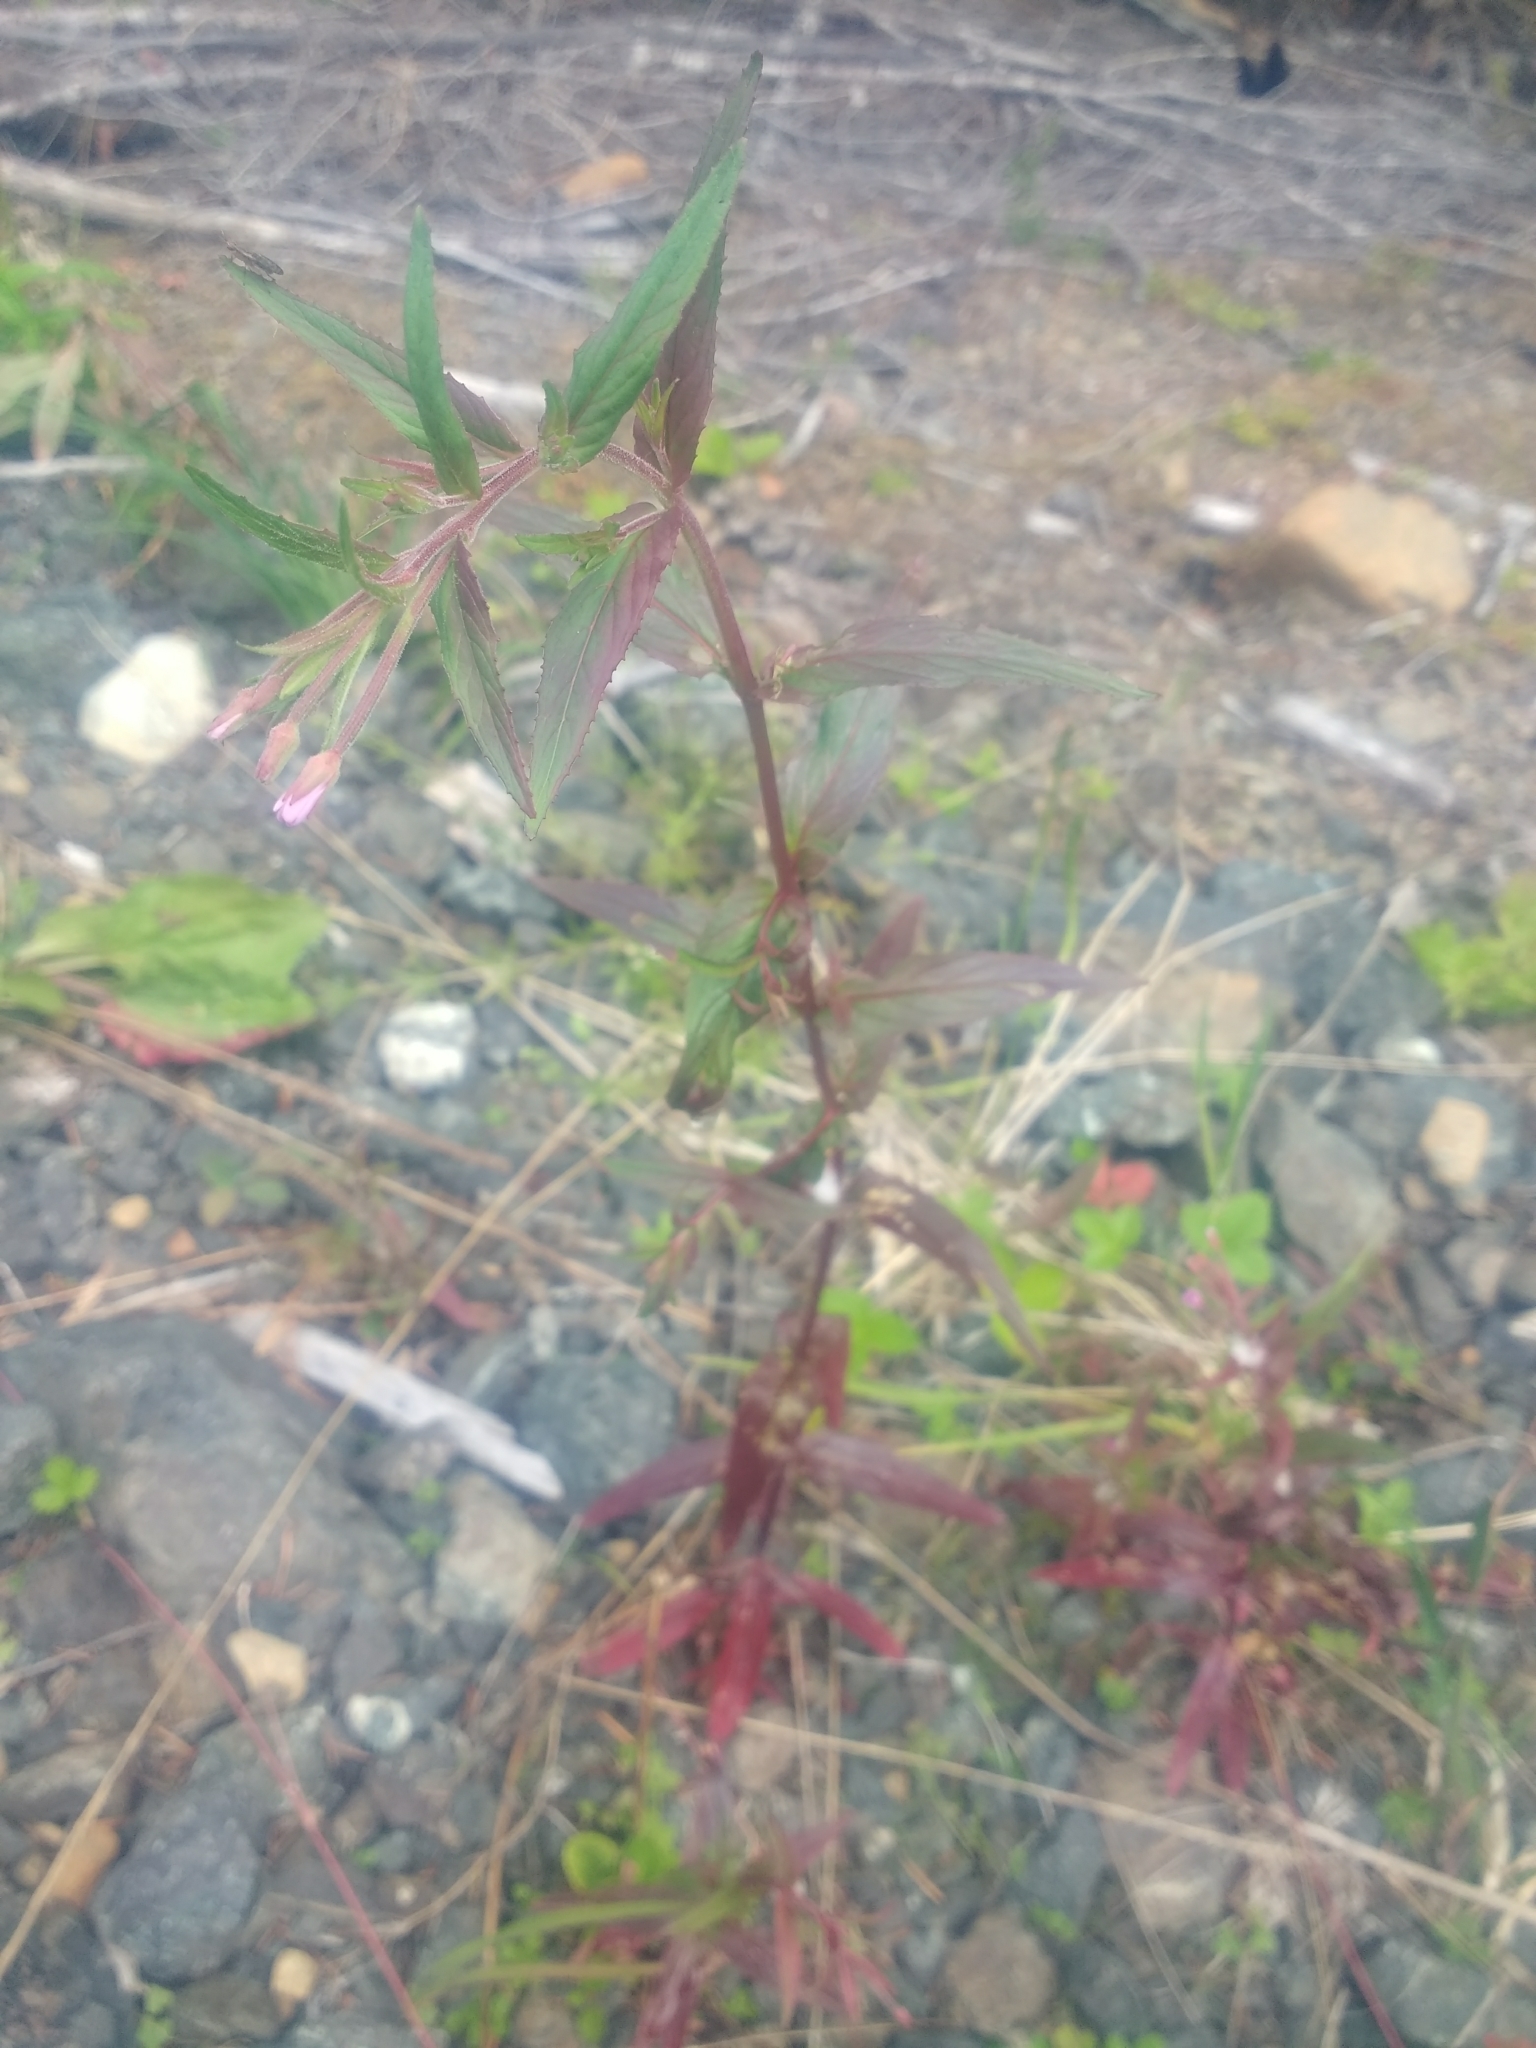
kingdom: Plantae
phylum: Tracheophyta
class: Magnoliopsida
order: Myrtales
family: Onagraceae
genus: Epilobium
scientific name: Epilobium ciliatum
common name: American willowherb
